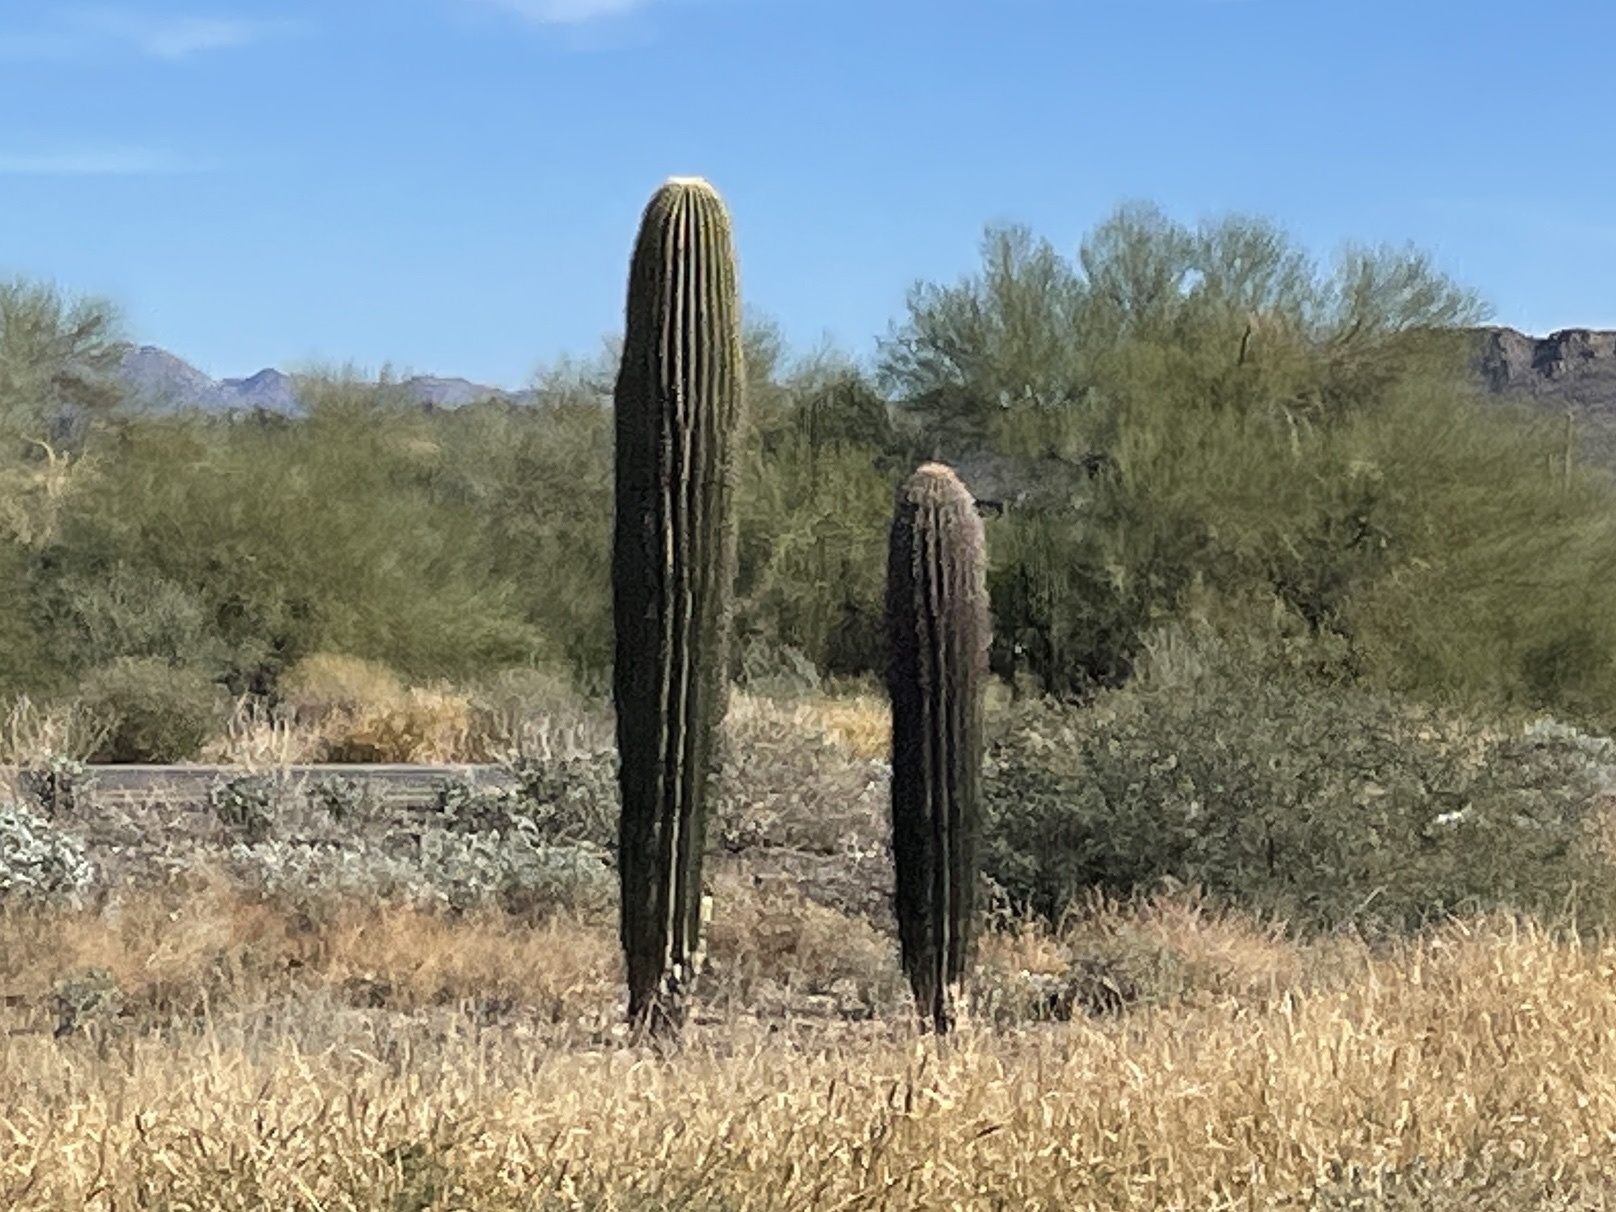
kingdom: Plantae
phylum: Tracheophyta
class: Magnoliopsida
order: Caryophyllales
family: Cactaceae
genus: Carnegiea
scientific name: Carnegiea gigantea
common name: Saguaro
